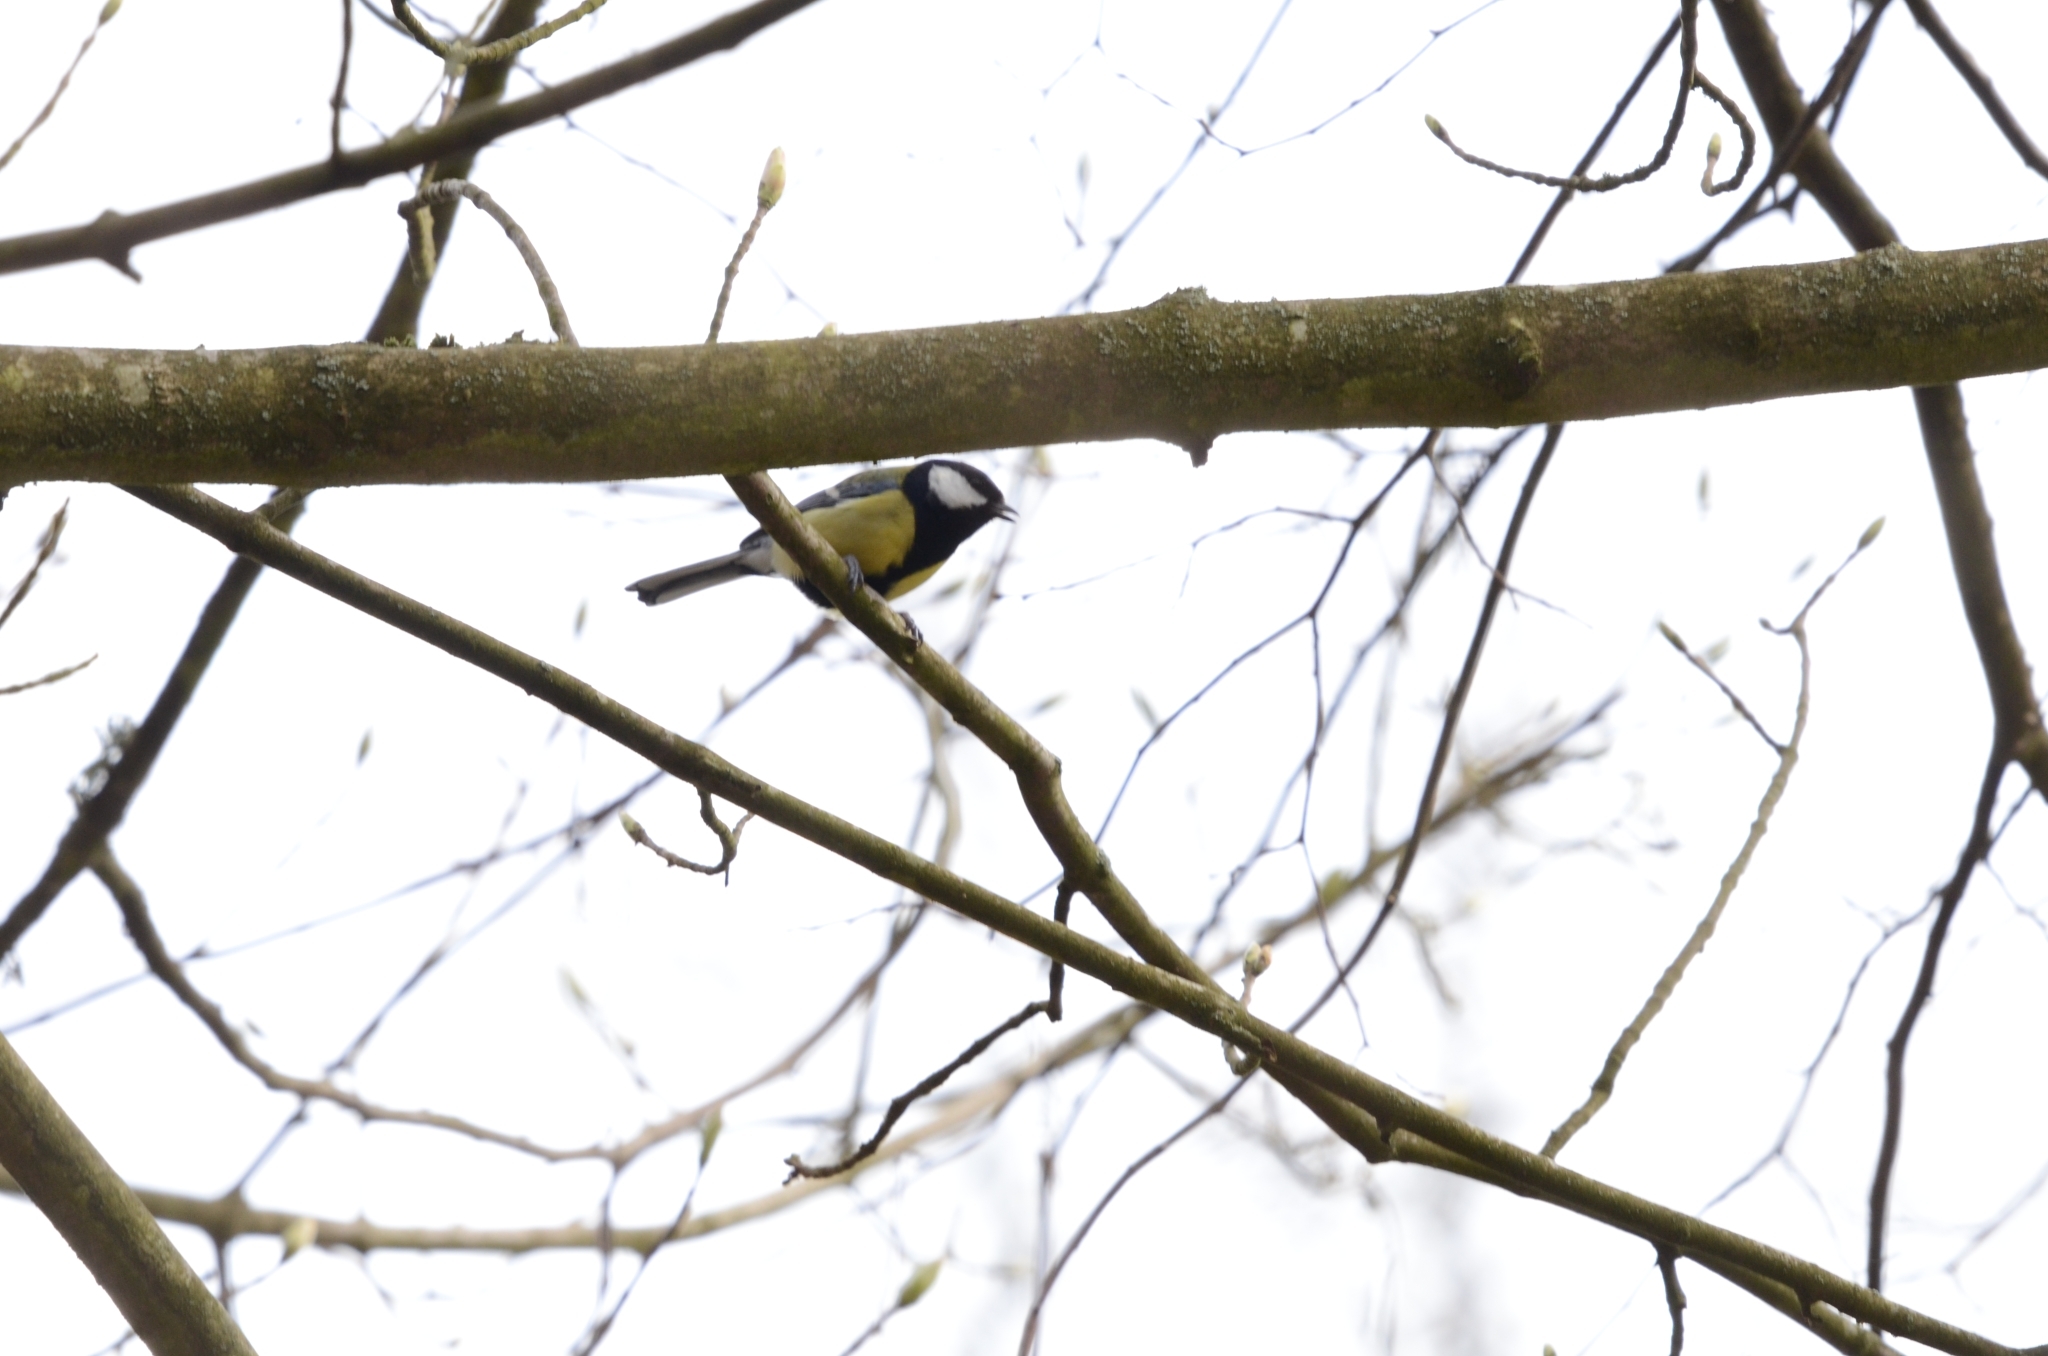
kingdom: Animalia
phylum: Chordata
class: Aves
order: Passeriformes
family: Paridae
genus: Parus
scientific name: Parus major
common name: Great tit
